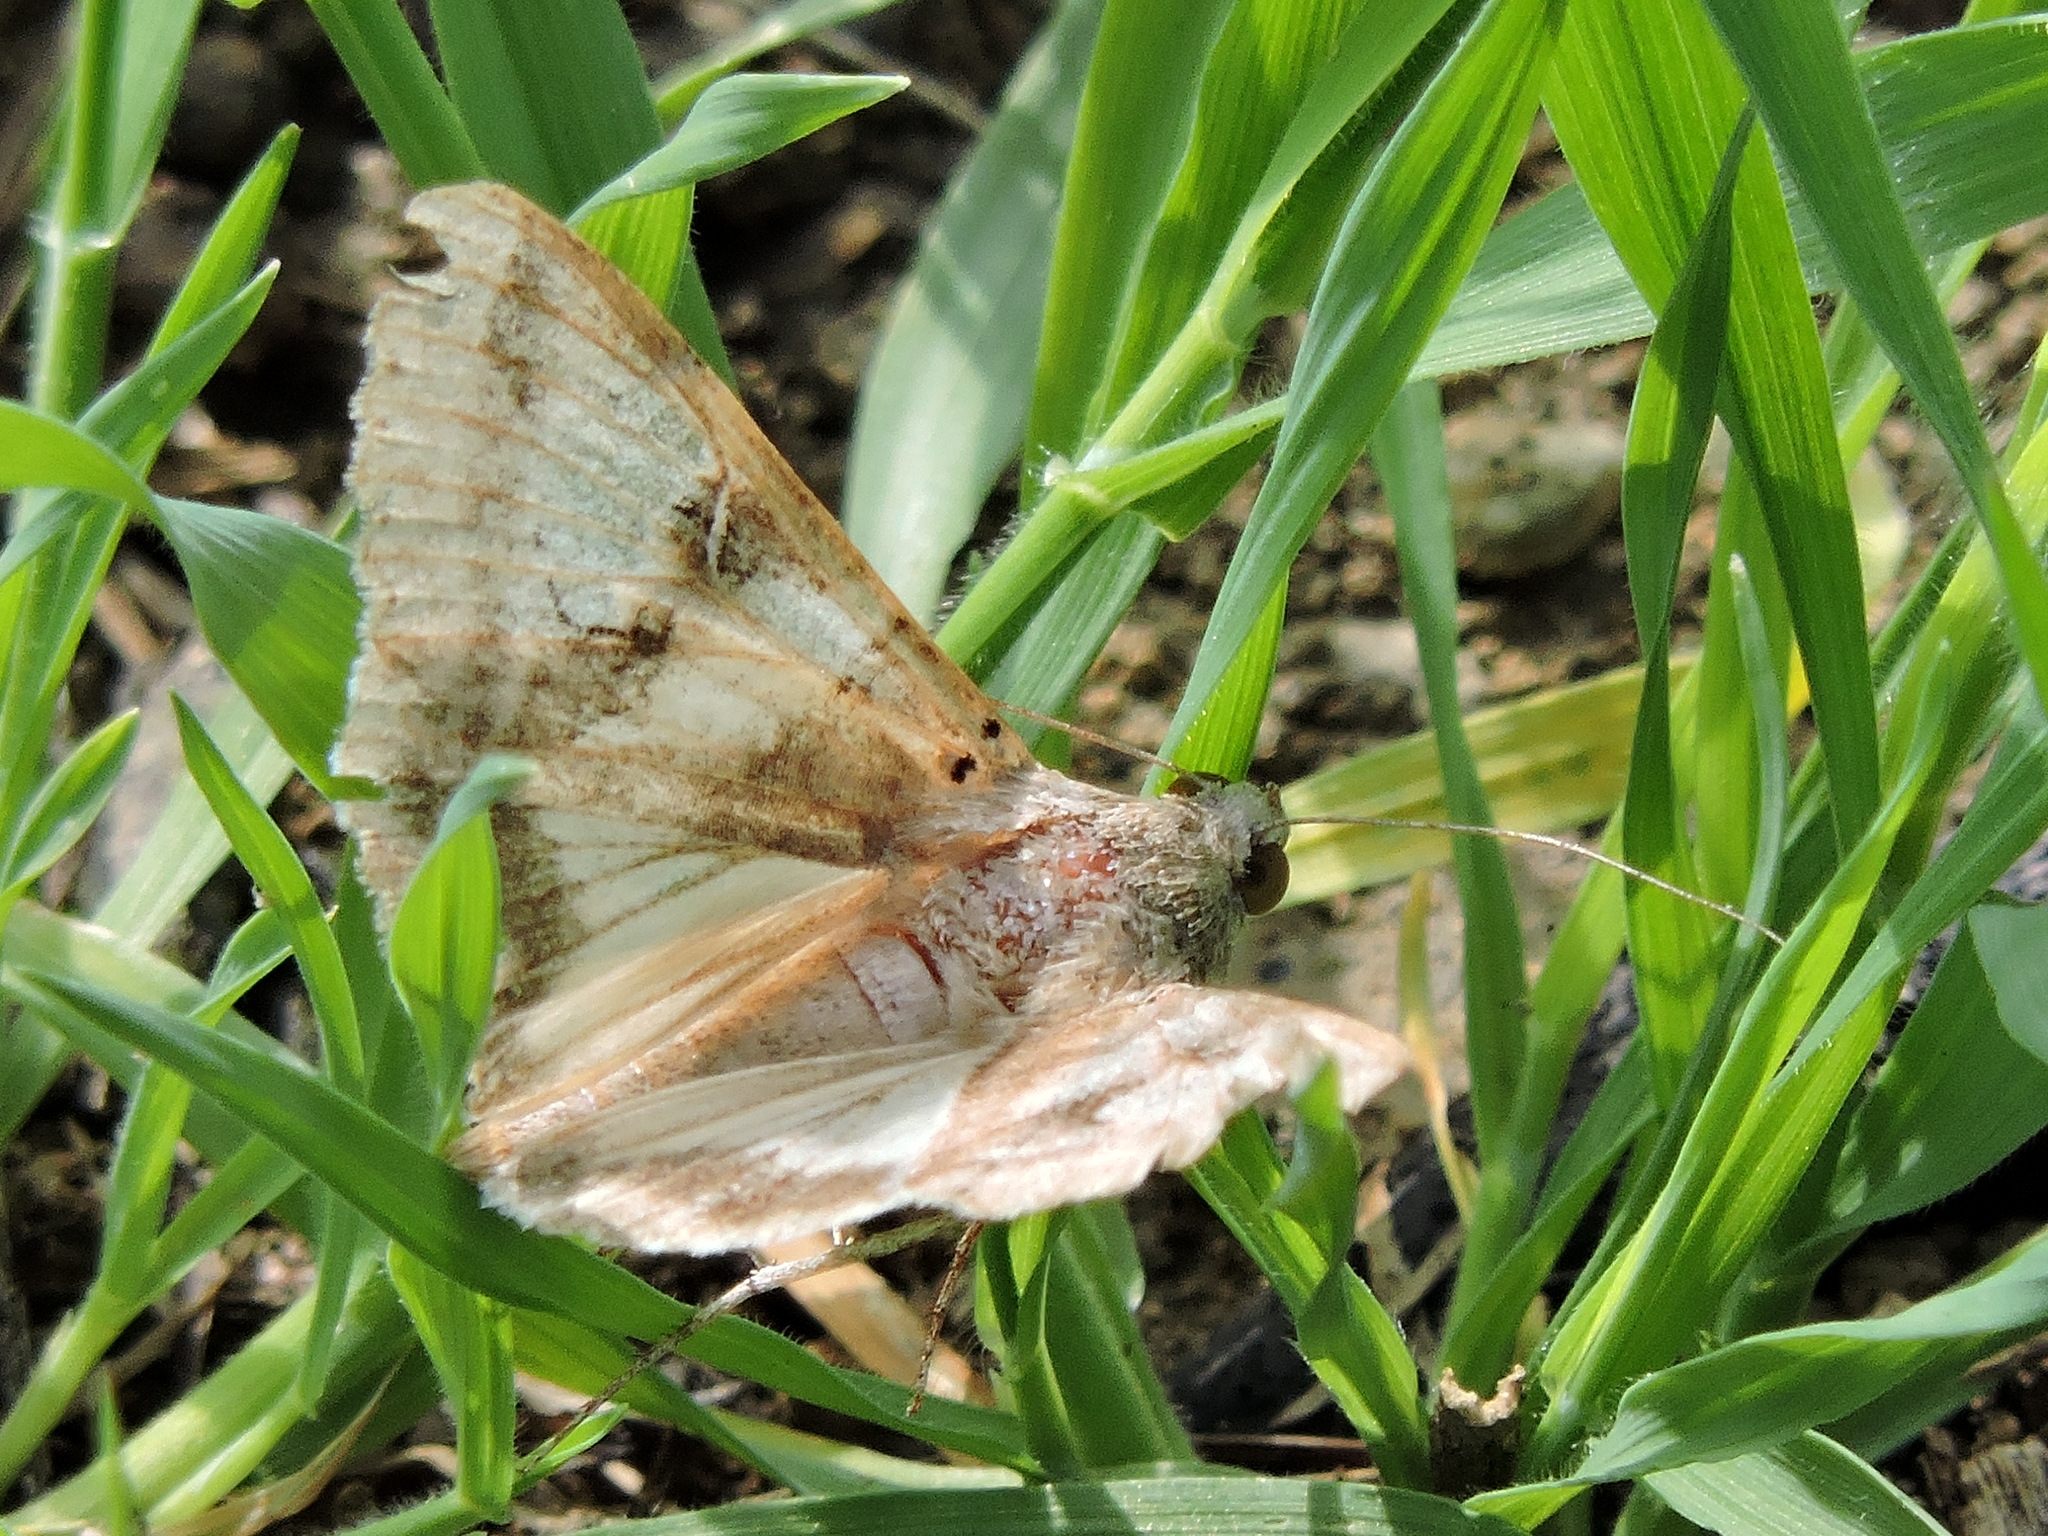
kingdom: Animalia
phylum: Arthropoda
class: Insecta
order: Lepidoptera
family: Erebidae
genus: Melipotis
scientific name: Melipotis indomita
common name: Moth
